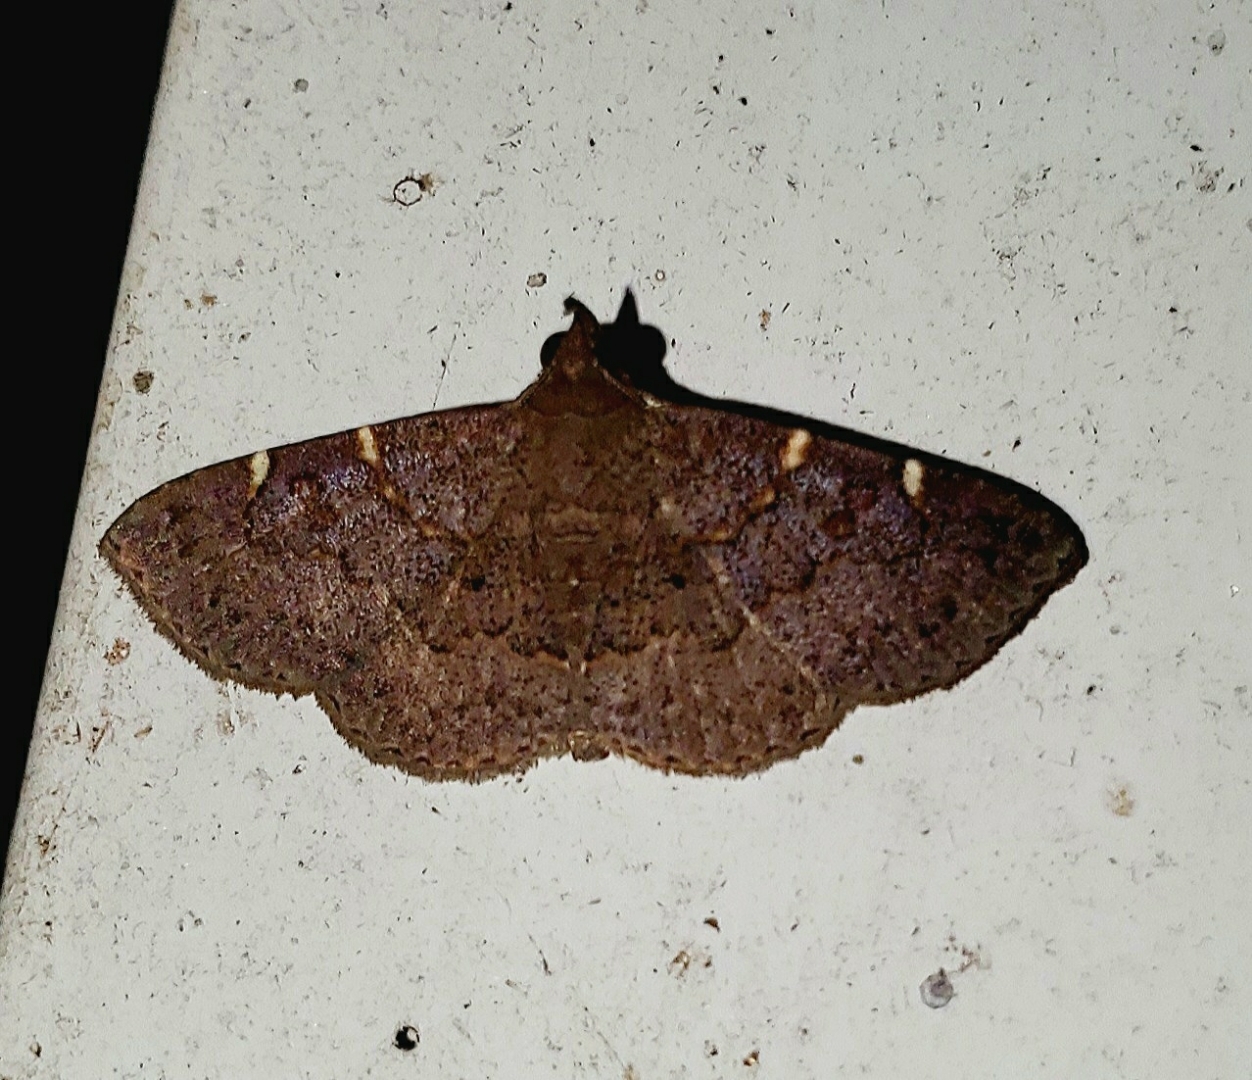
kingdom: Animalia
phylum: Arthropoda
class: Insecta
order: Lepidoptera
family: Erebidae
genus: Antiblemma
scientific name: Antiblemma perva
